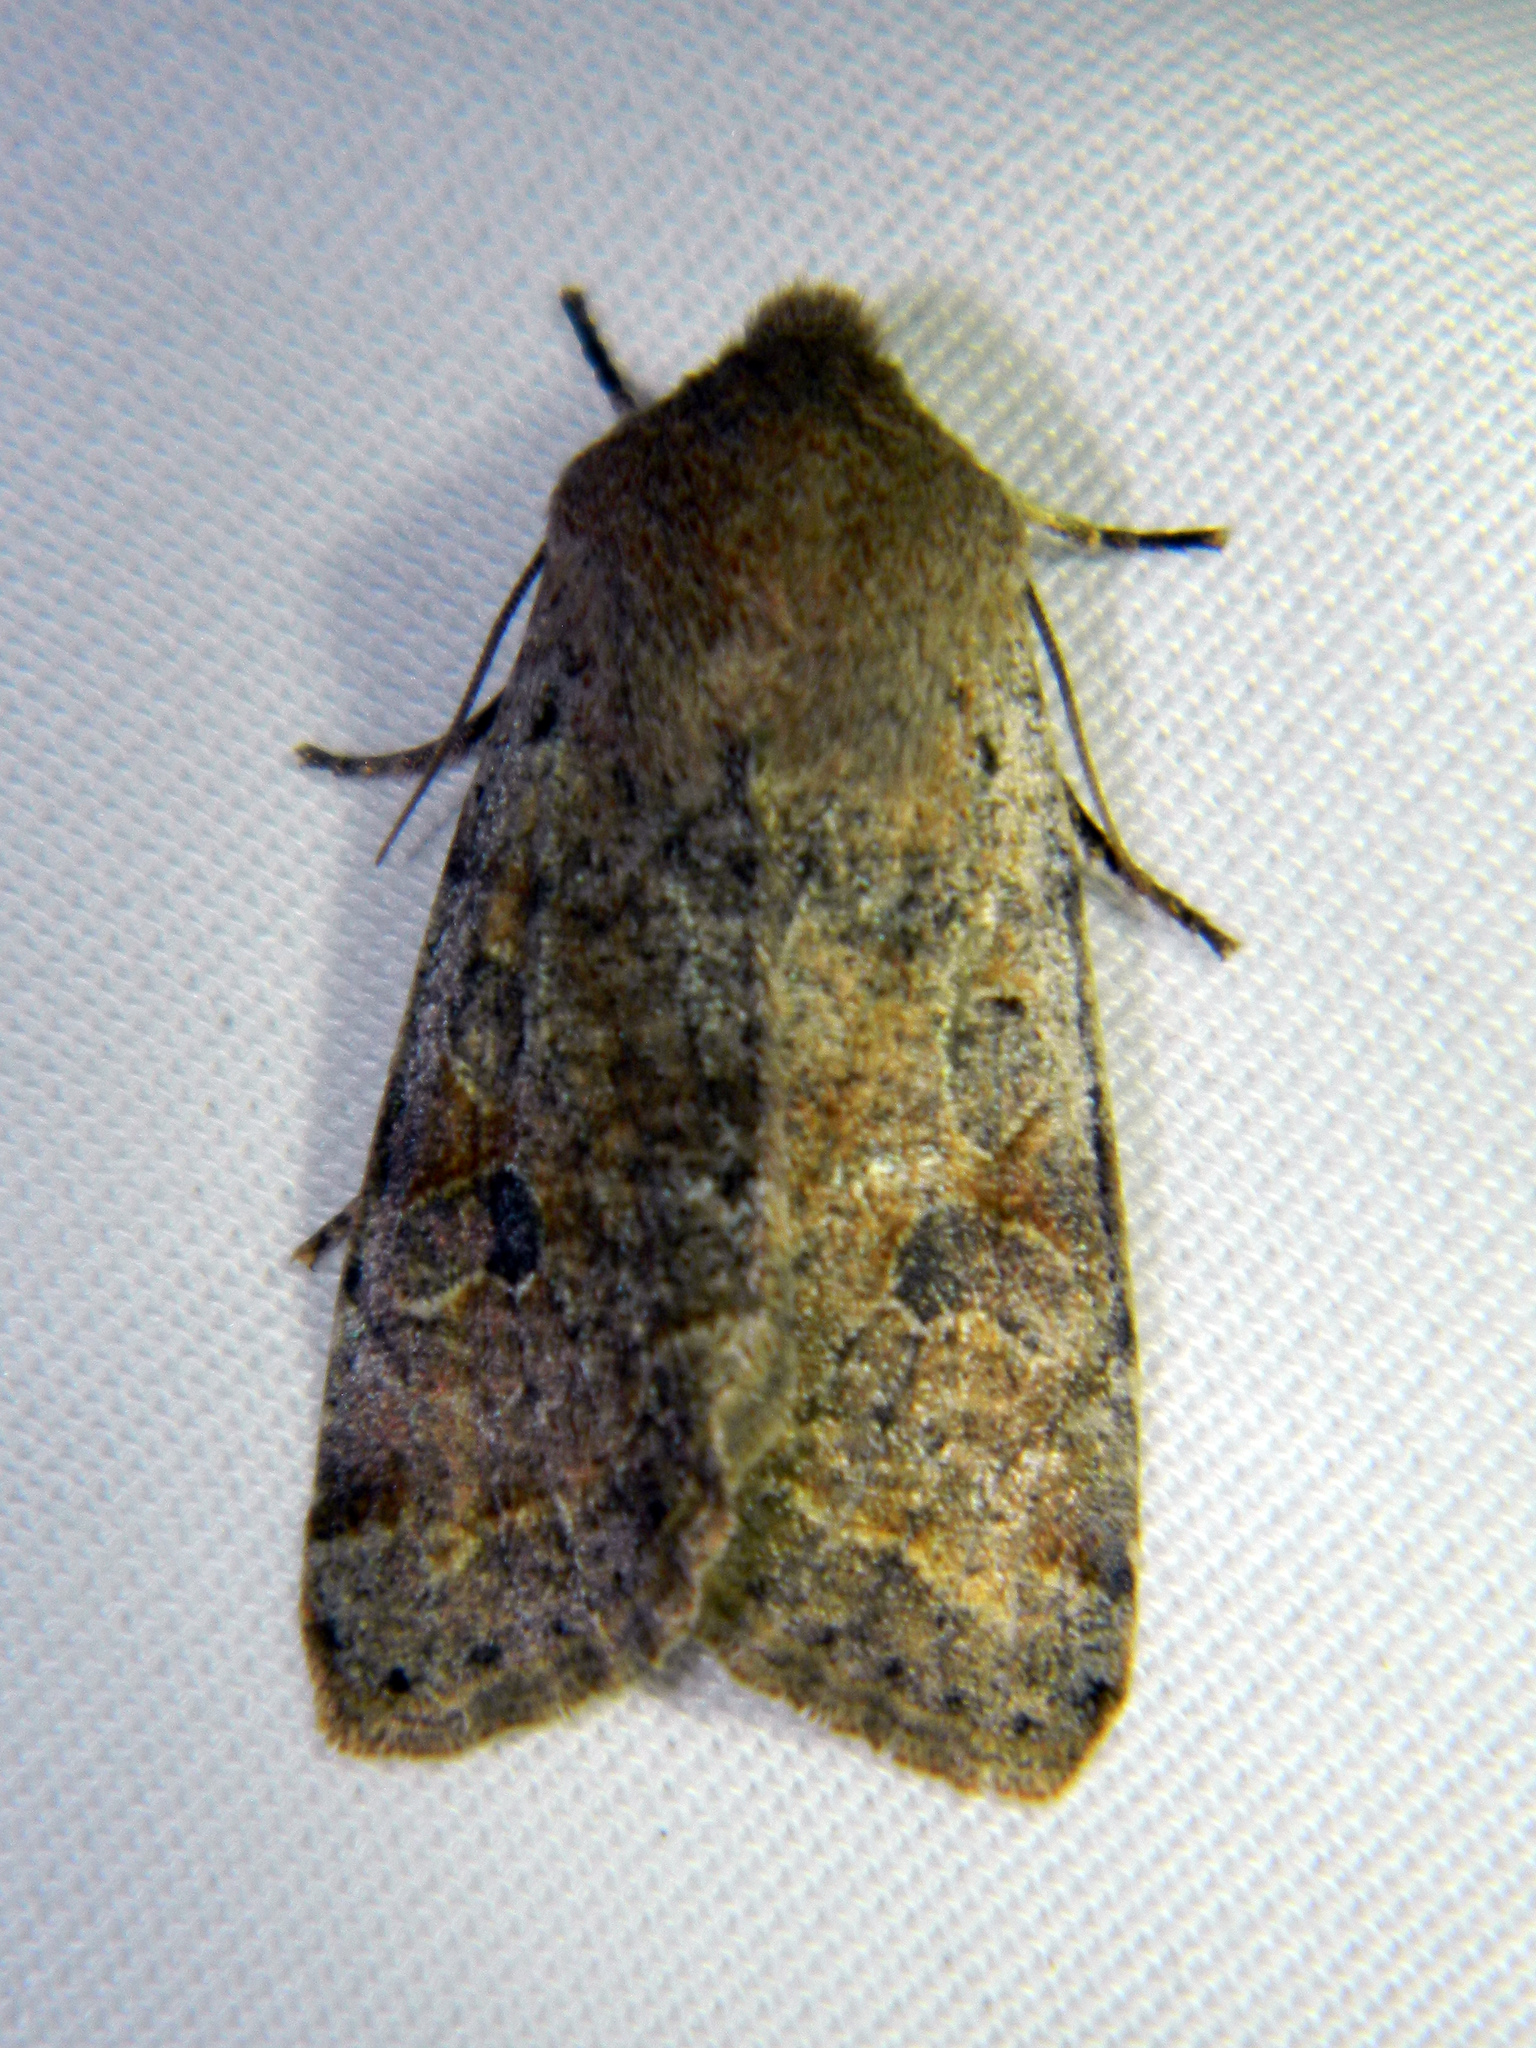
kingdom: Animalia
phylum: Arthropoda
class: Insecta
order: Lepidoptera
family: Noctuidae
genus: Orthosia
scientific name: Orthosia hibisci
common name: Green fruitworm
